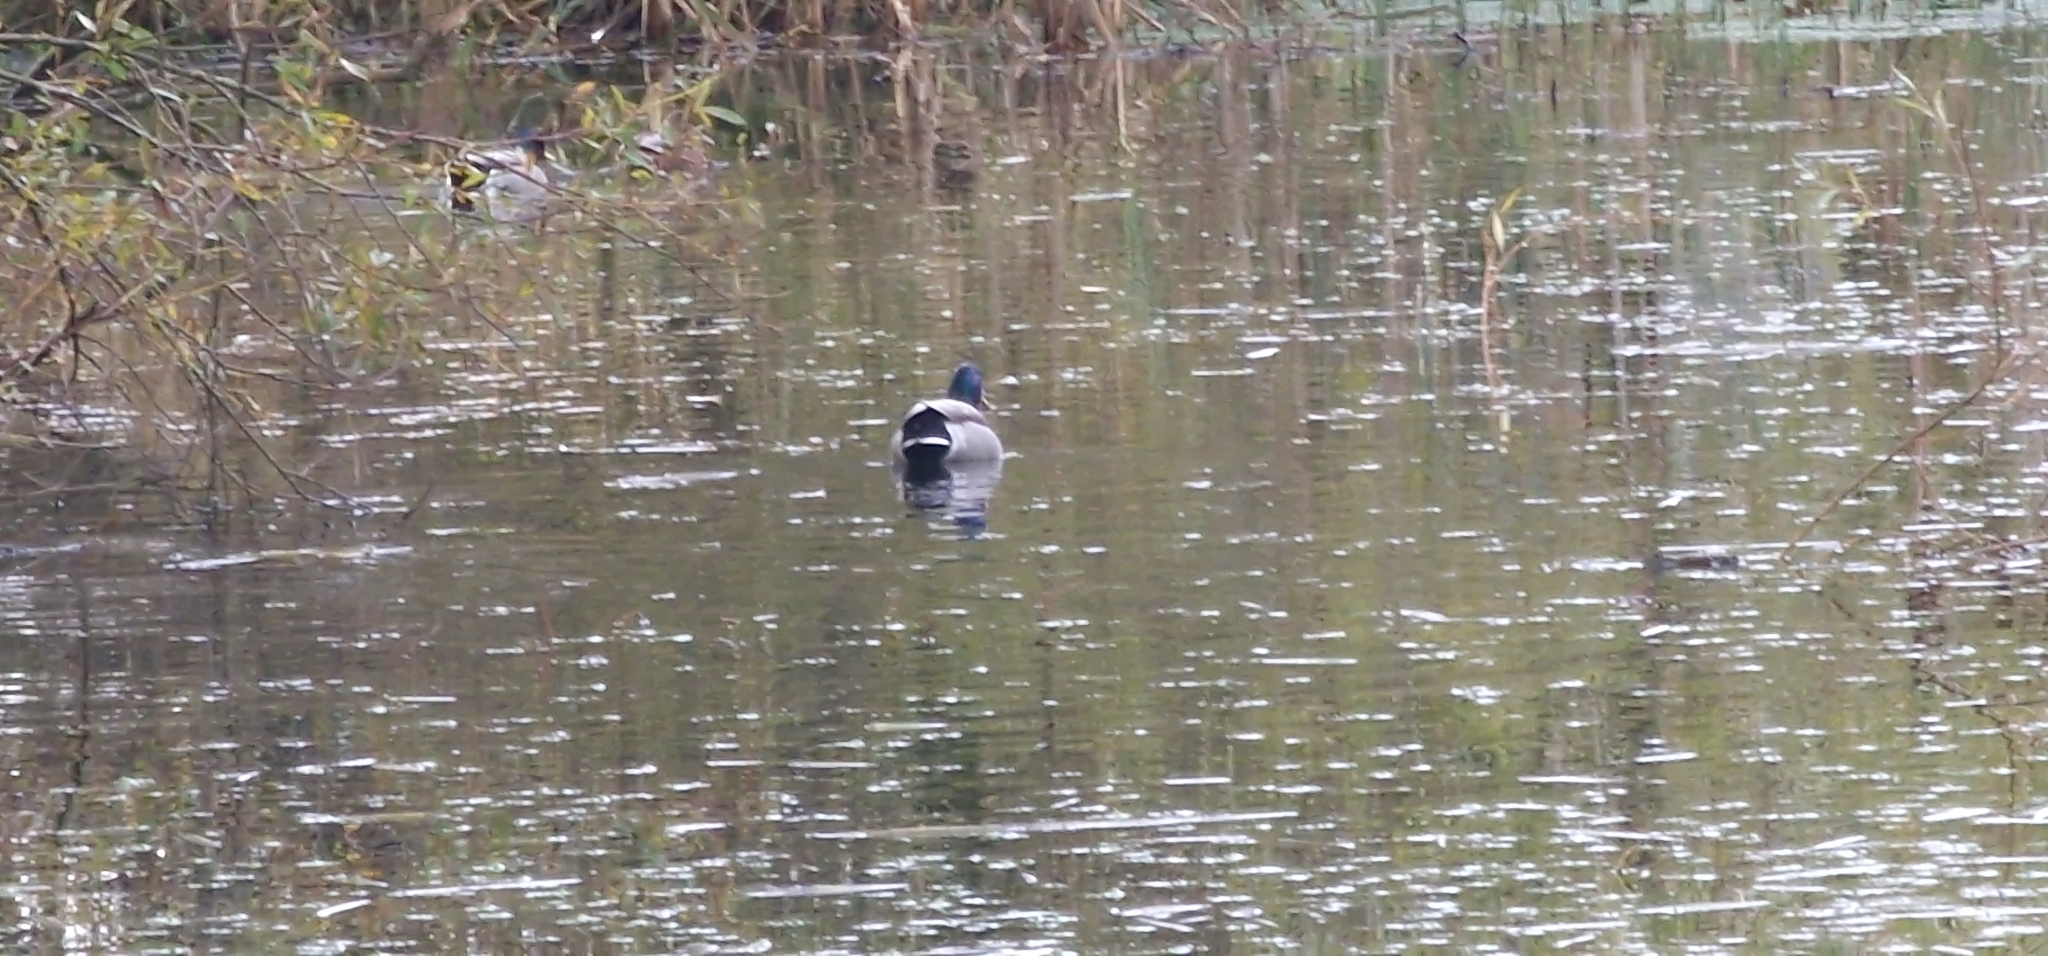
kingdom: Animalia
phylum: Chordata
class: Aves
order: Anseriformes
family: Anatidae
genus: Anas
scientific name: Anas platyrhynchos
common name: Mallard
